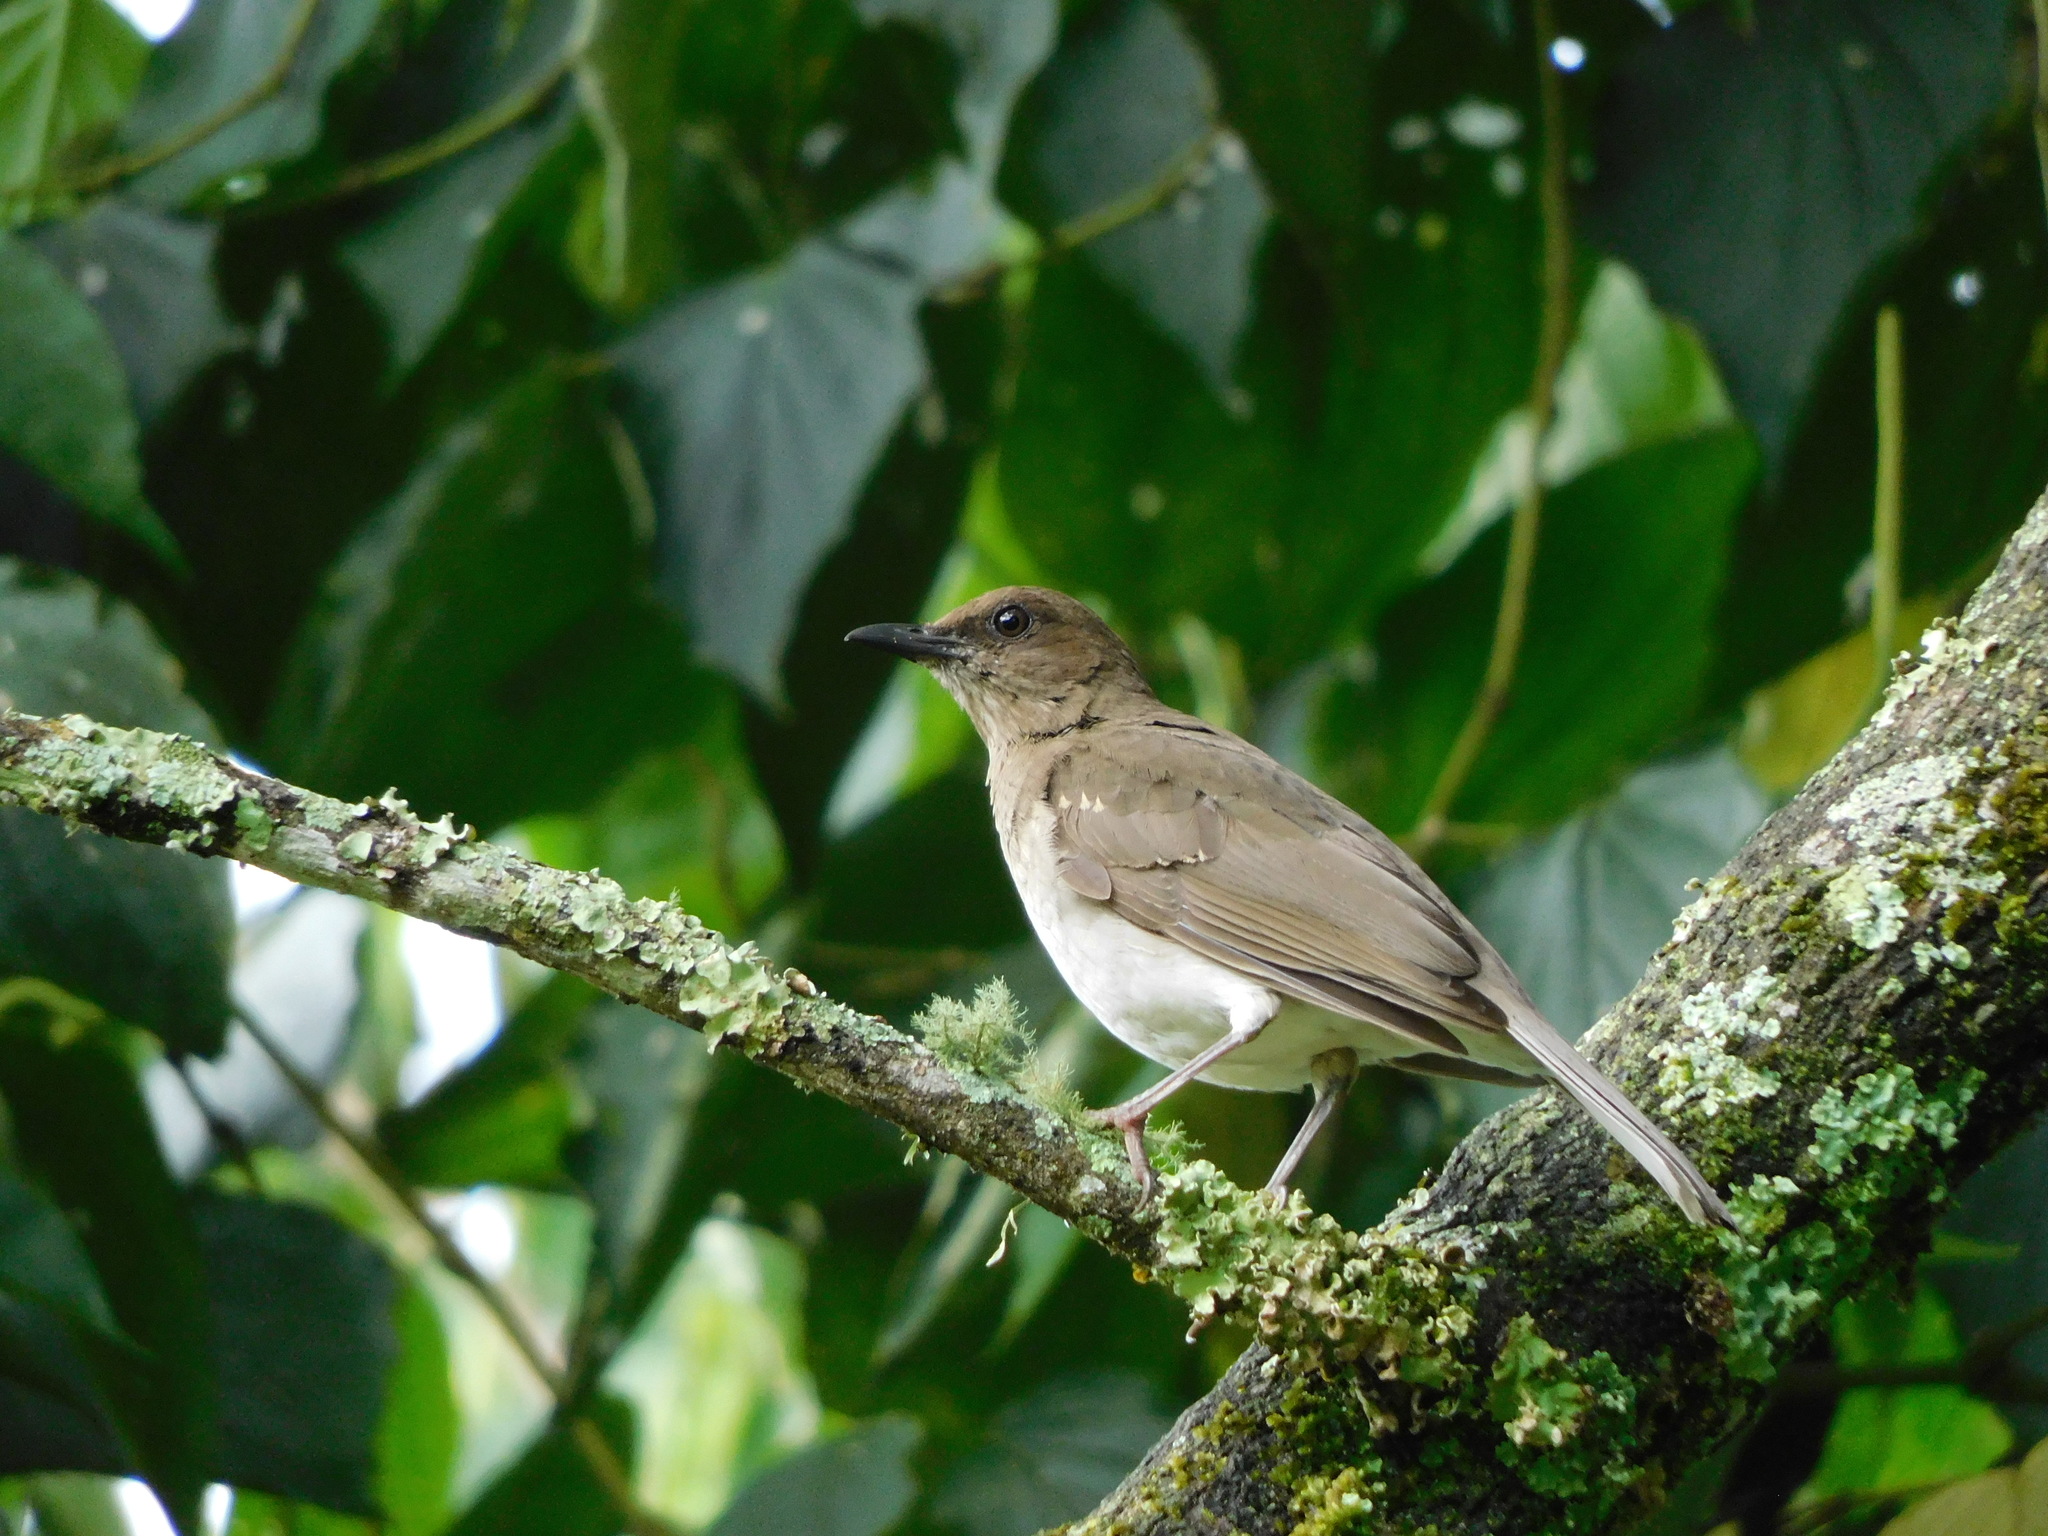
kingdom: Animalia
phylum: Chordata
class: Aves
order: Passeriformes
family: Turdidae
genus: Turdus
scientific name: Turdus ignobilis
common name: Black-billed thrush
